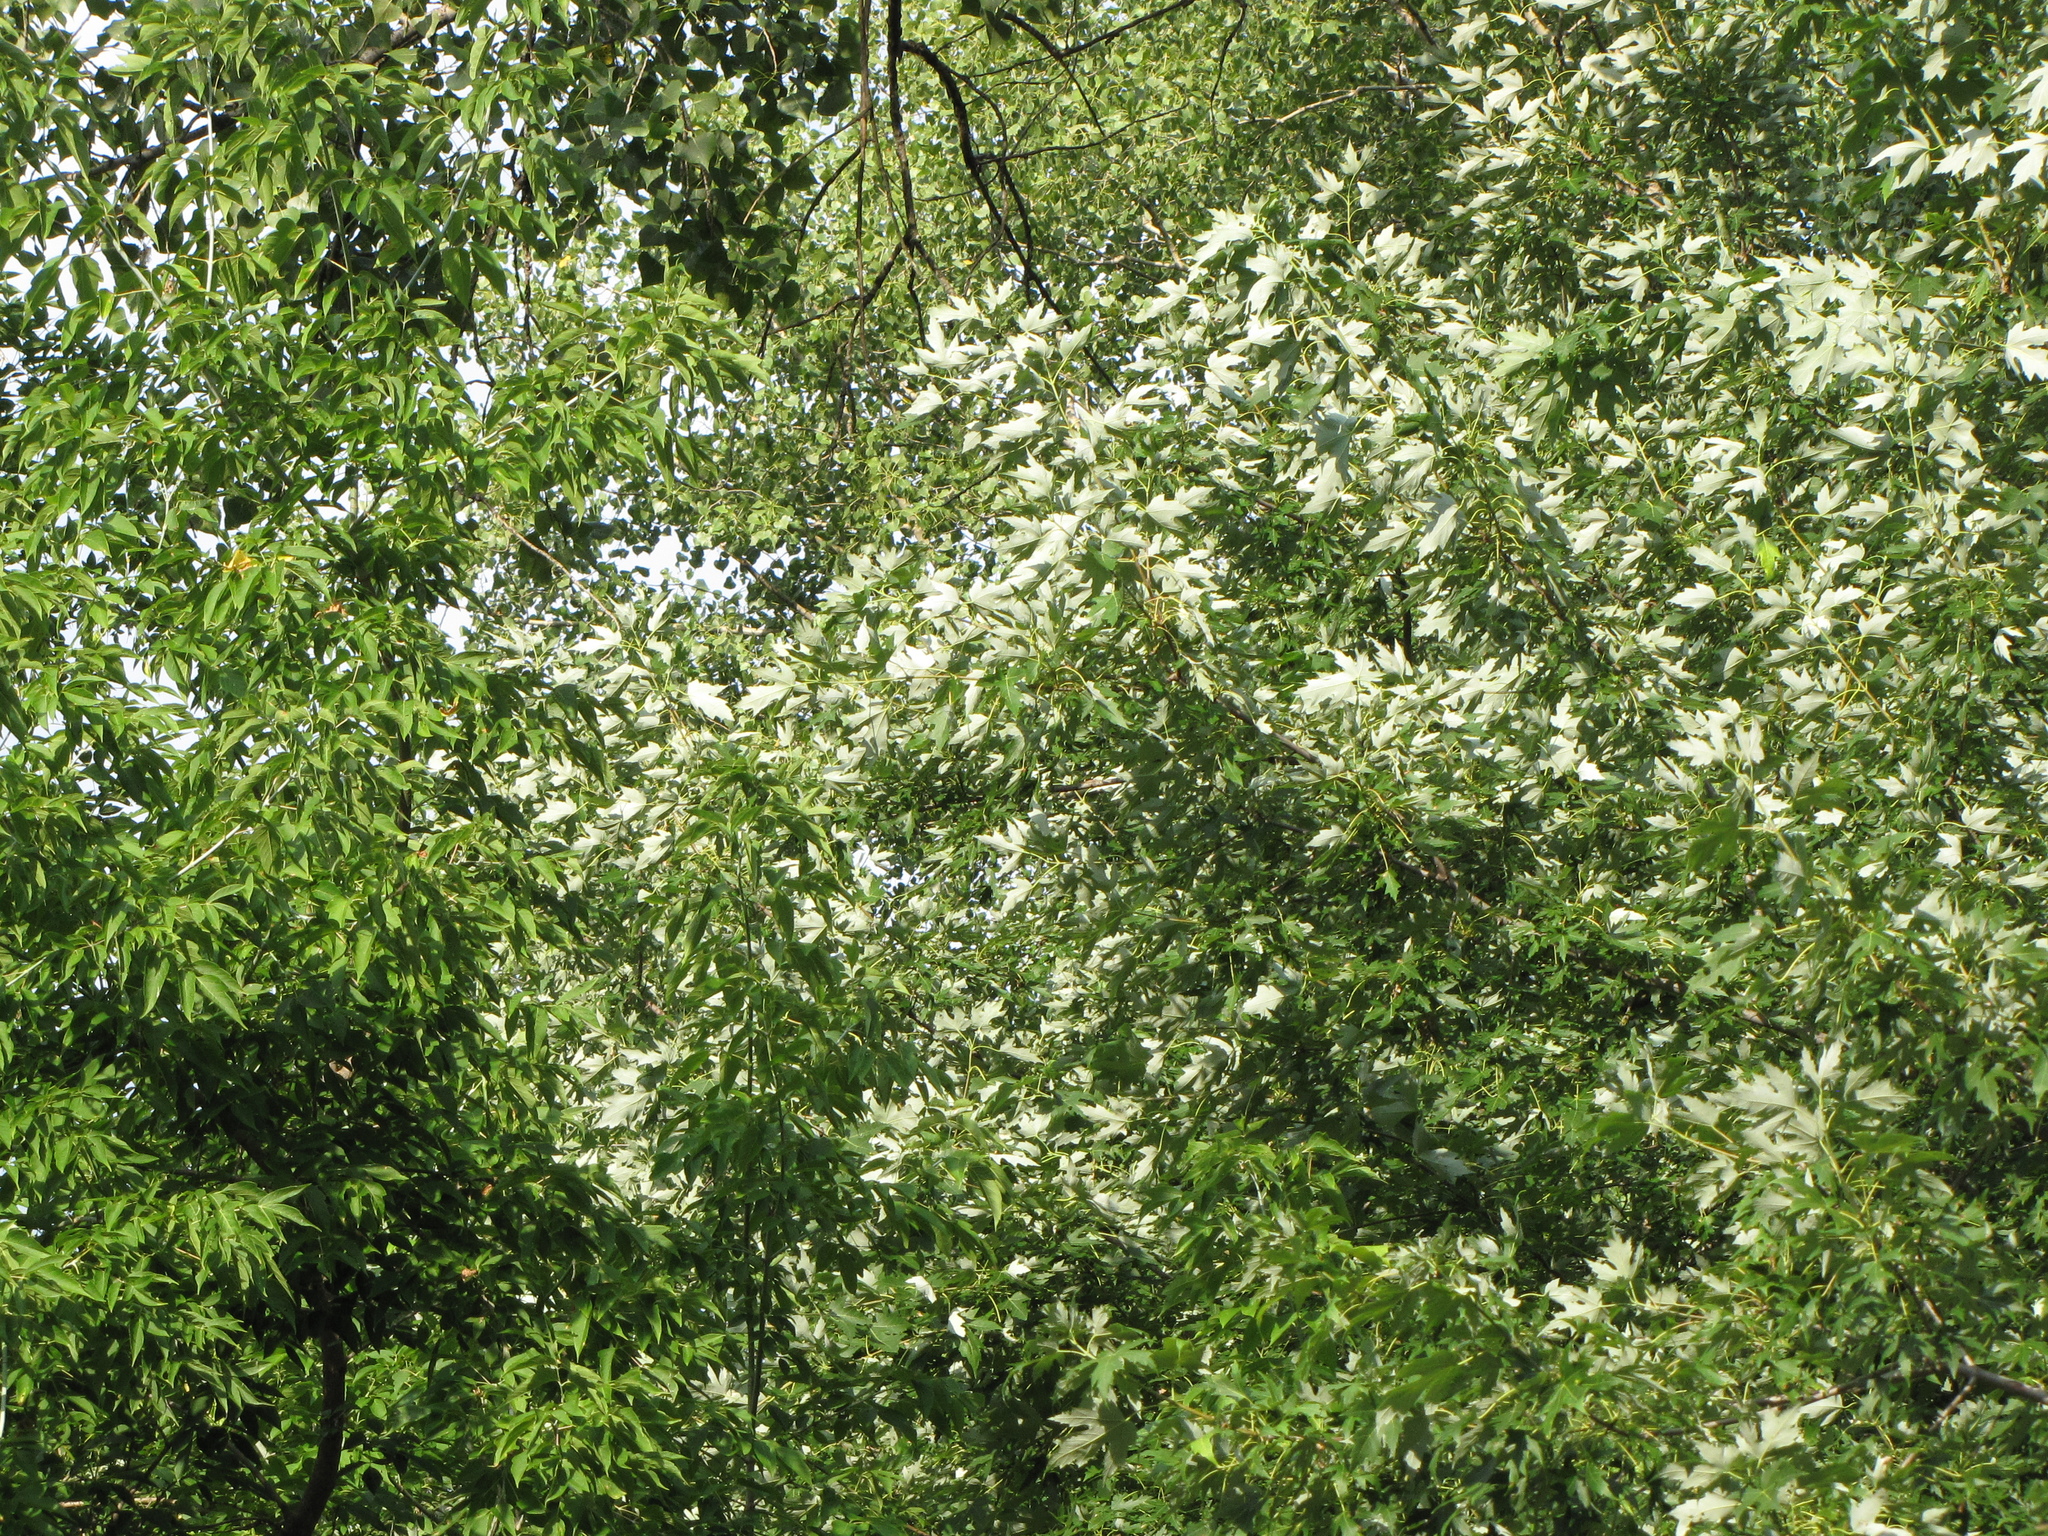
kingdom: Plantae
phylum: Tracheophyta
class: Magnoliopsida
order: Sapindales
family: Sapindaceae
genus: Acer
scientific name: Acer saccharinum
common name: Silver maple
